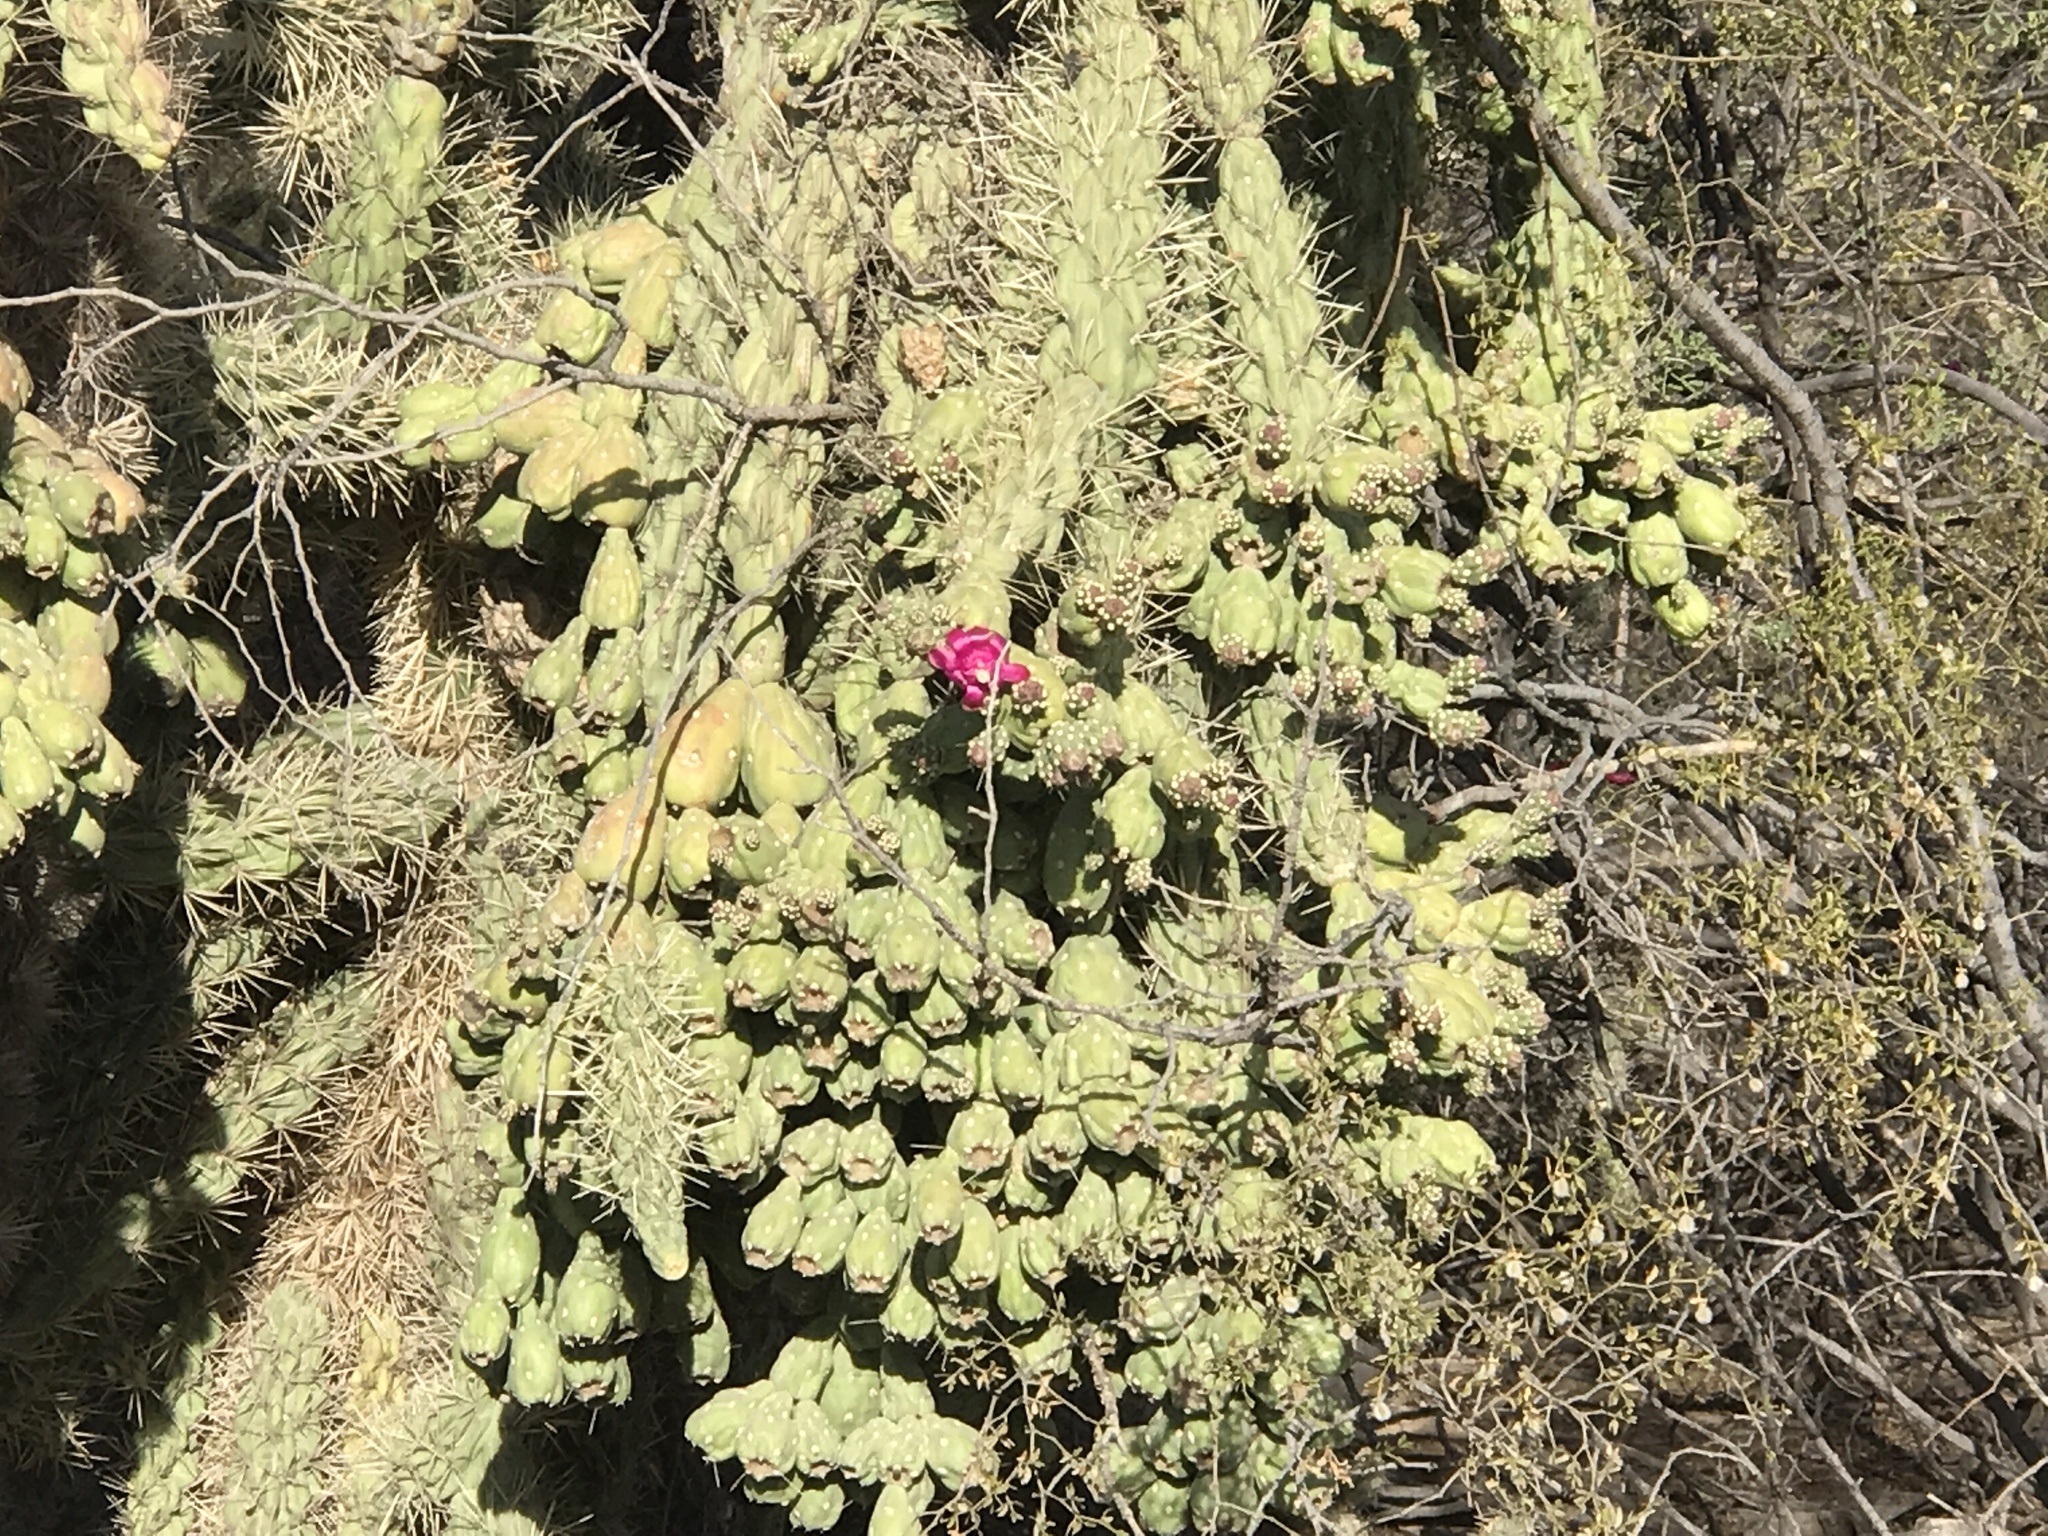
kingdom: Plantae
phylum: Tracheophyta
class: Magnoliopsida
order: Caryophyllales
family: Cactaceae
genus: Cylindropuntia
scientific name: Cylindropuntia fulgida
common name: Jumping cholla
